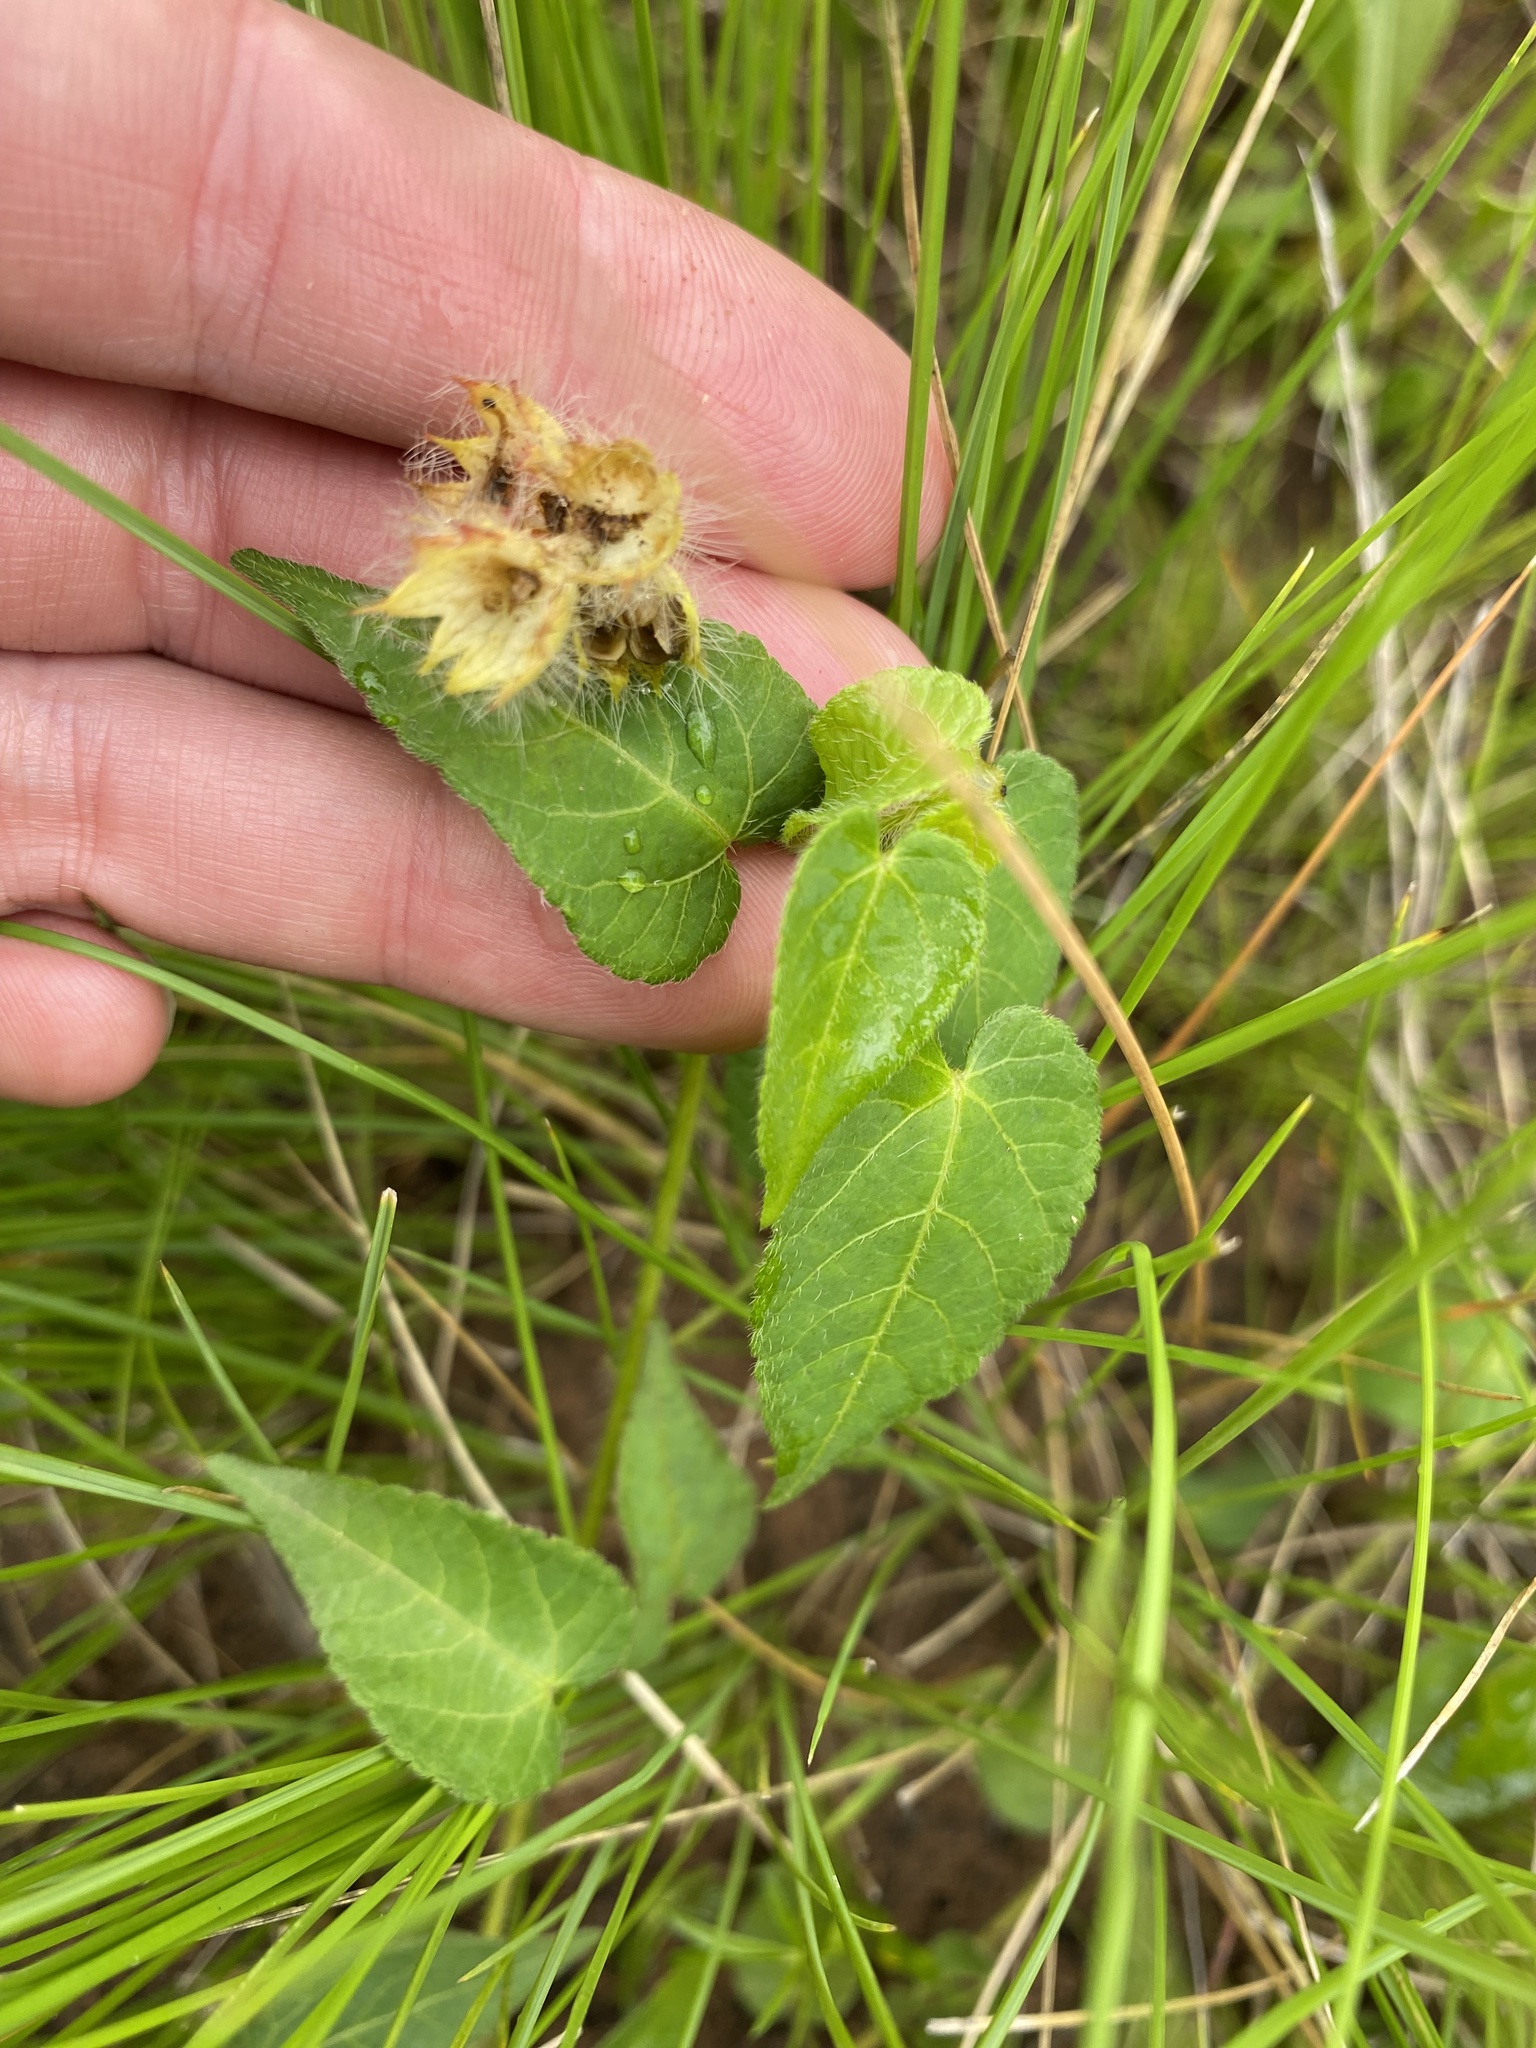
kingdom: Plantae
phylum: Tracheophyta
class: Magnoliopsida
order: Malpighiales
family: Euphorbiaceae
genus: Acalypha
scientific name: Acalypha petiolaris
